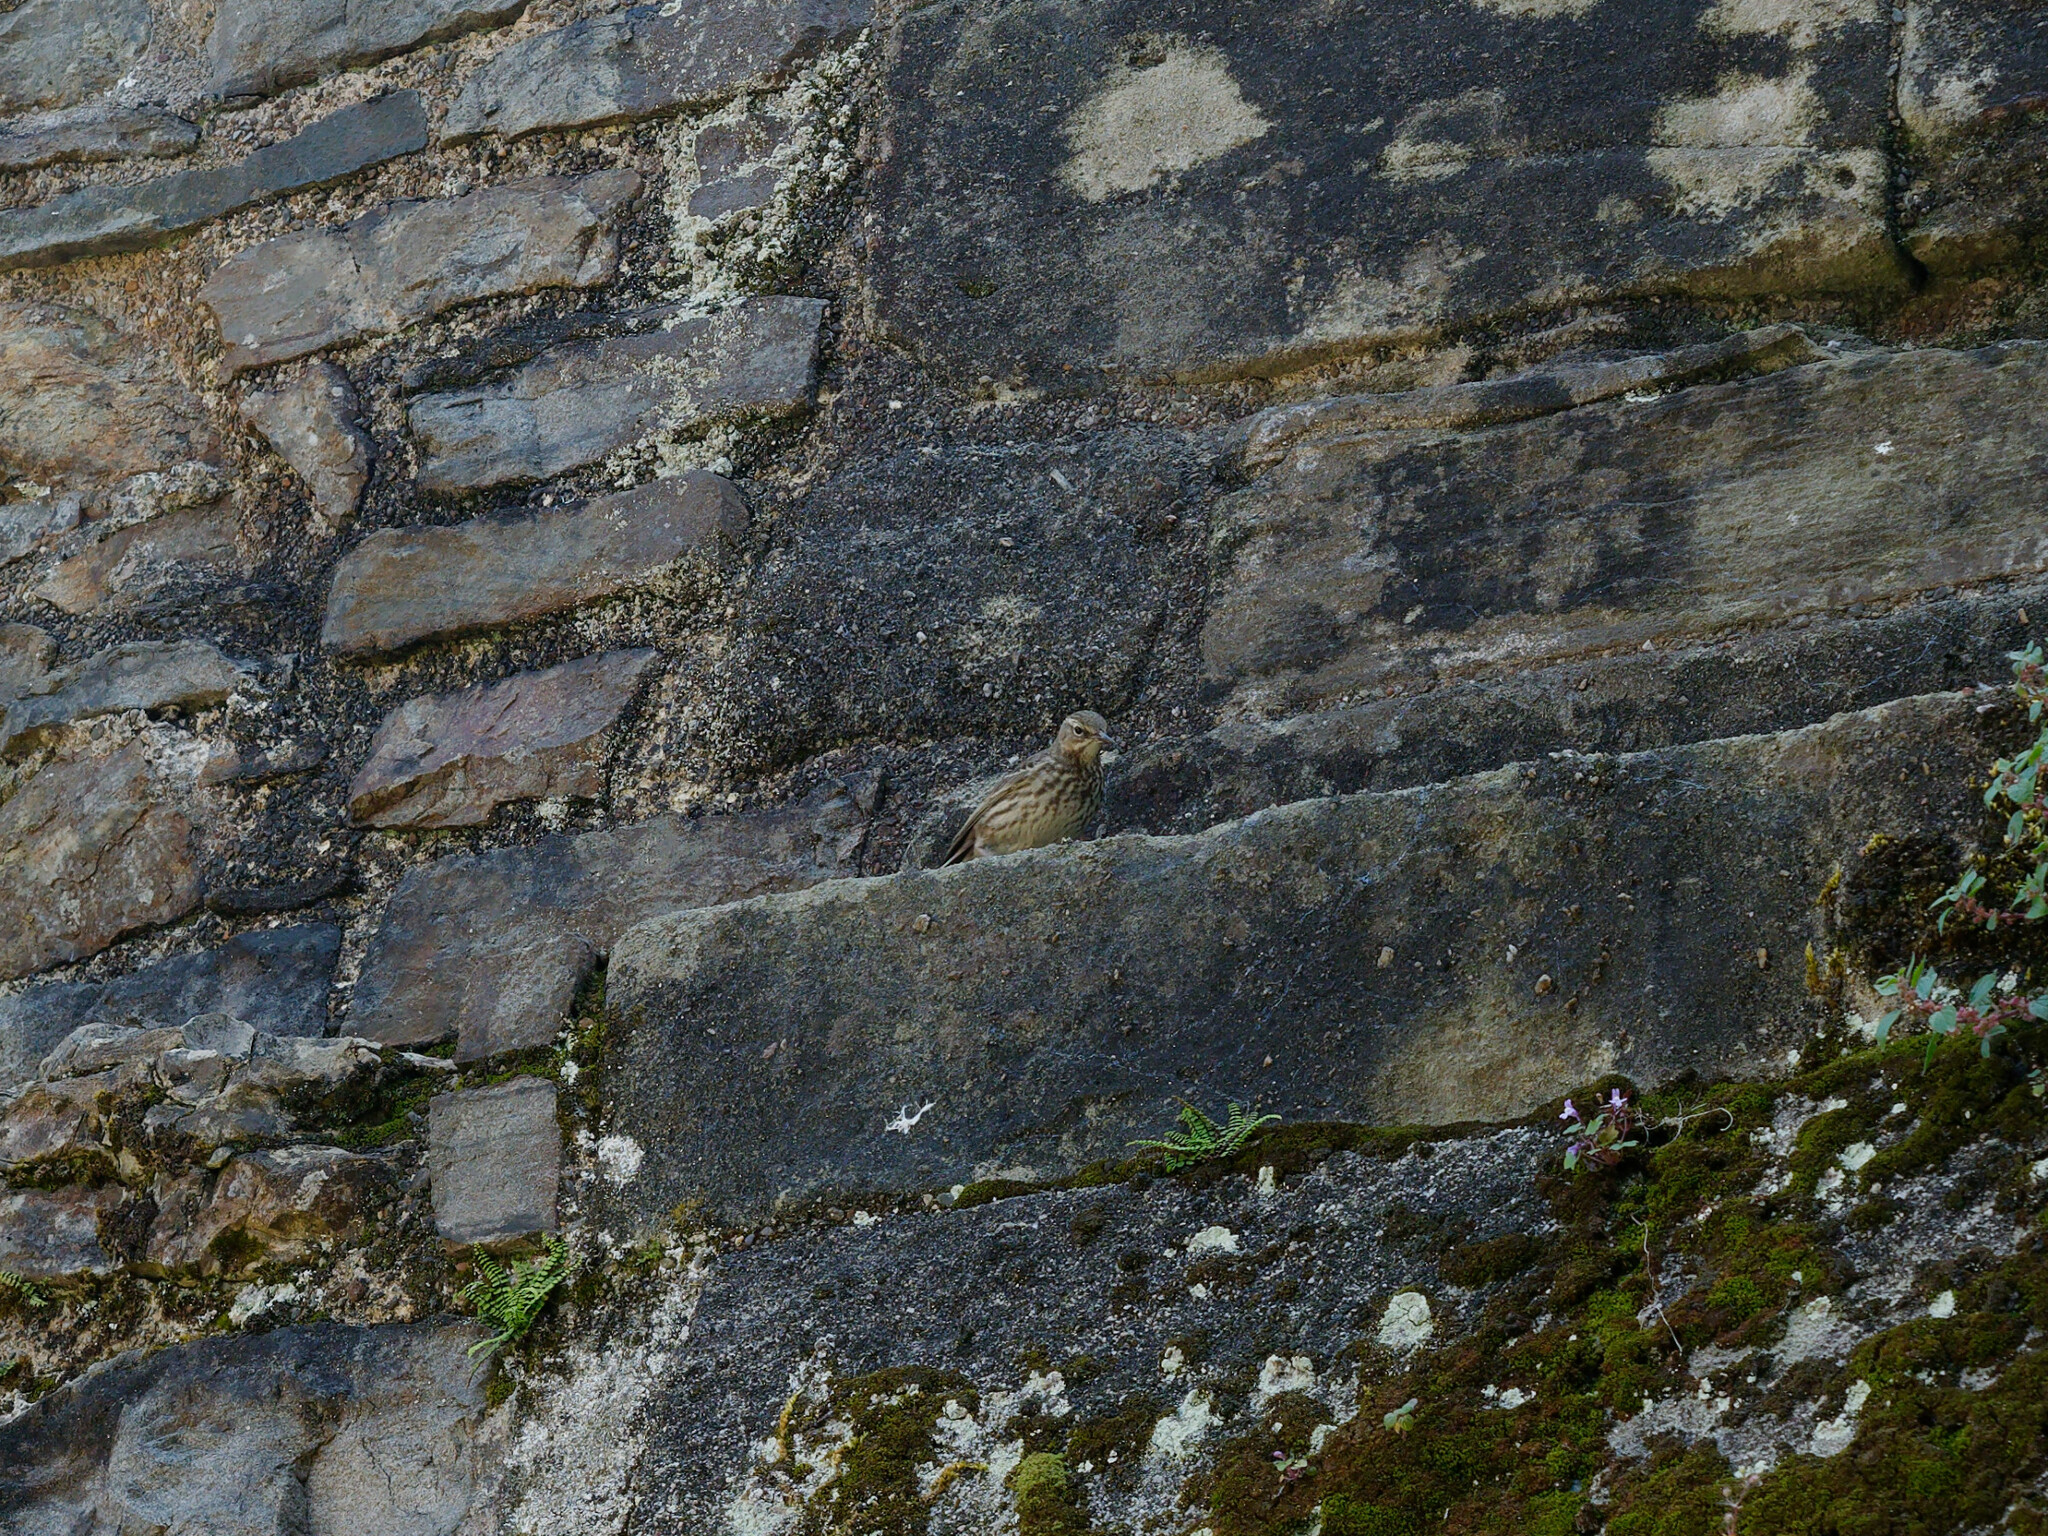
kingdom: Animalia
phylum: Chordata
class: Aves
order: Passeriformes
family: Motacillidae
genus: Anthus
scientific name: Anthus petrosus
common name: Eurasian rock pipit
